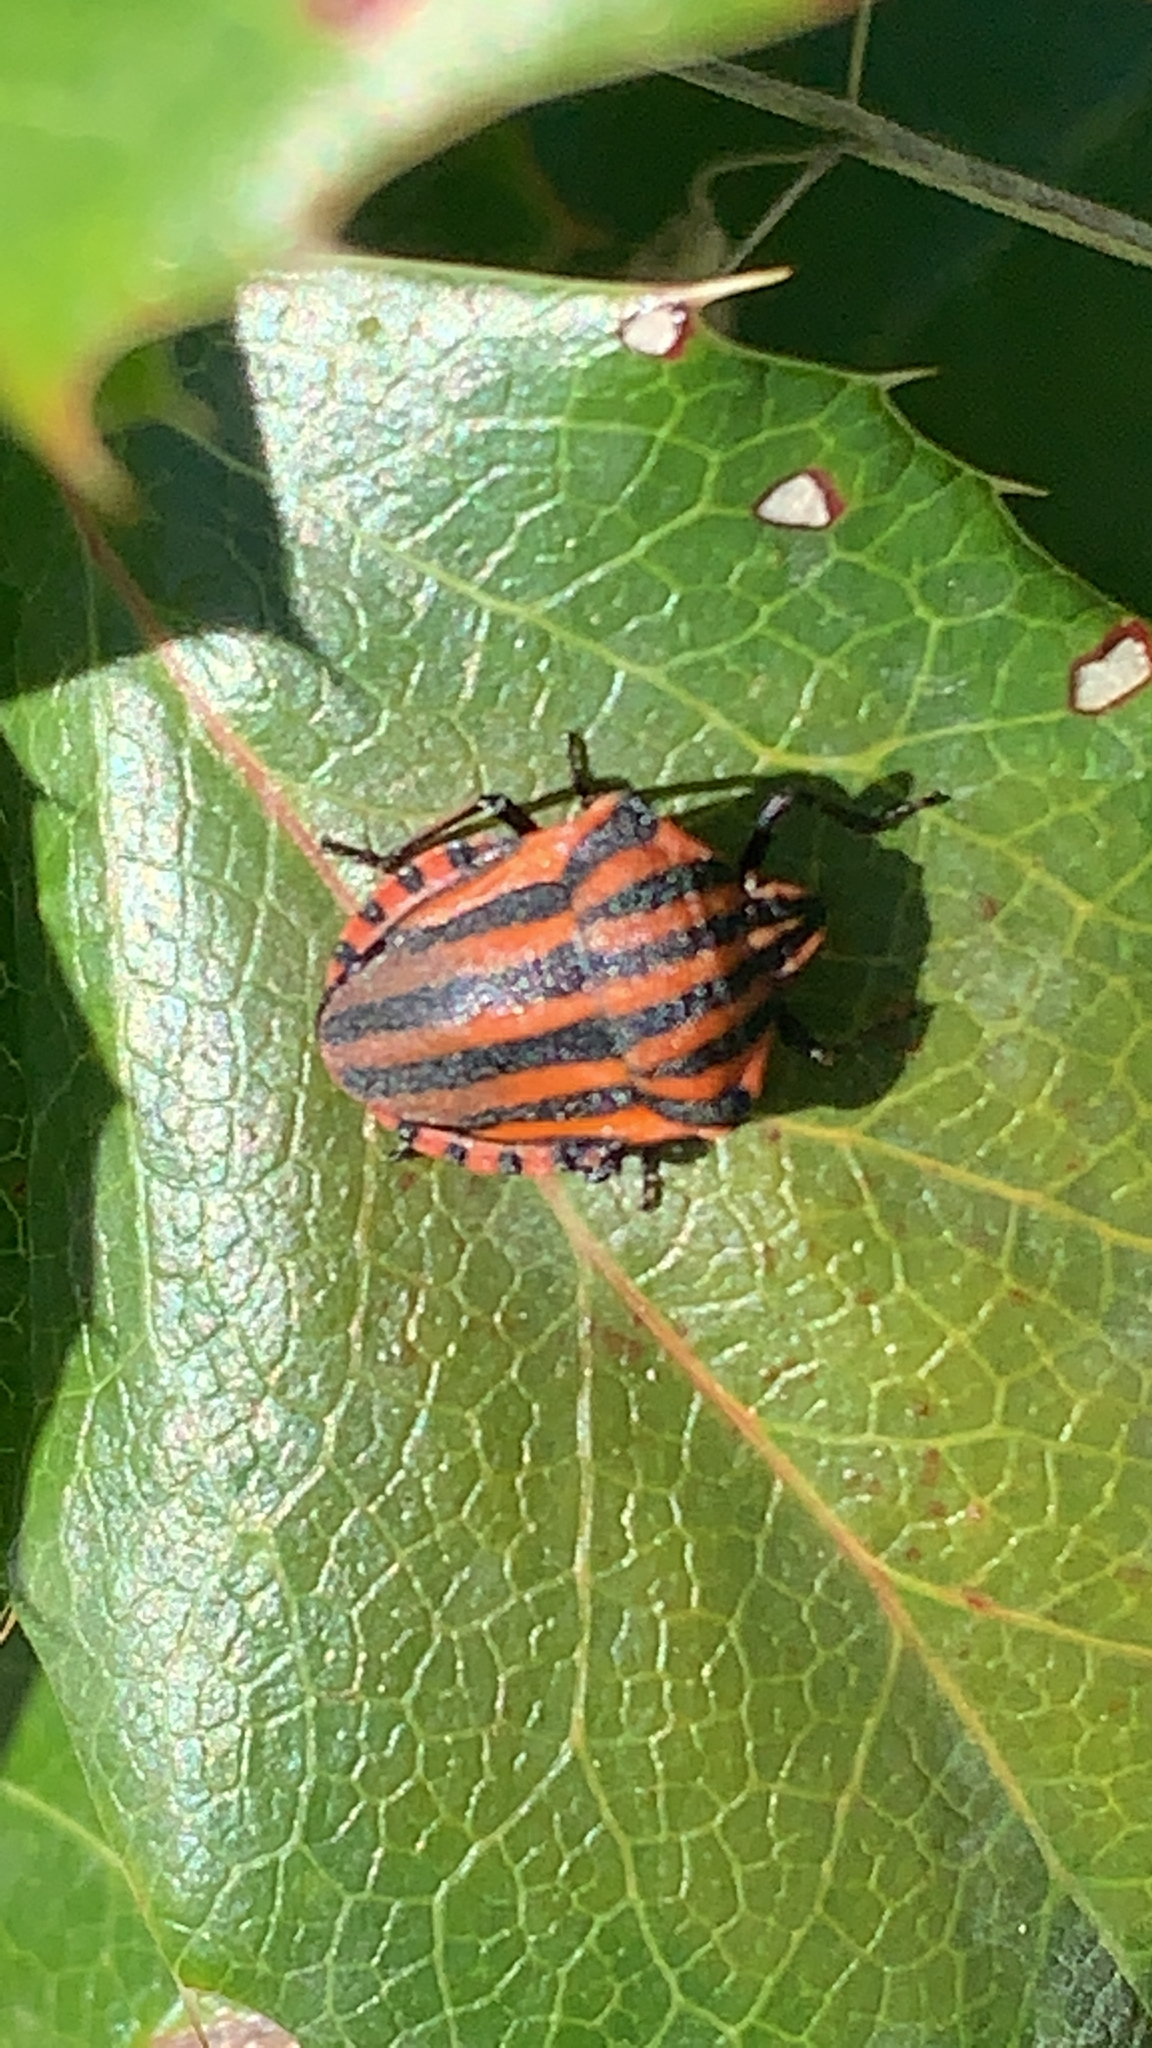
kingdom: Animalia
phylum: Arthropoda
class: Insecta
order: Hemiptera
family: Pentatomidae
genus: Graphosoma
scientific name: Graphosoma italicum
